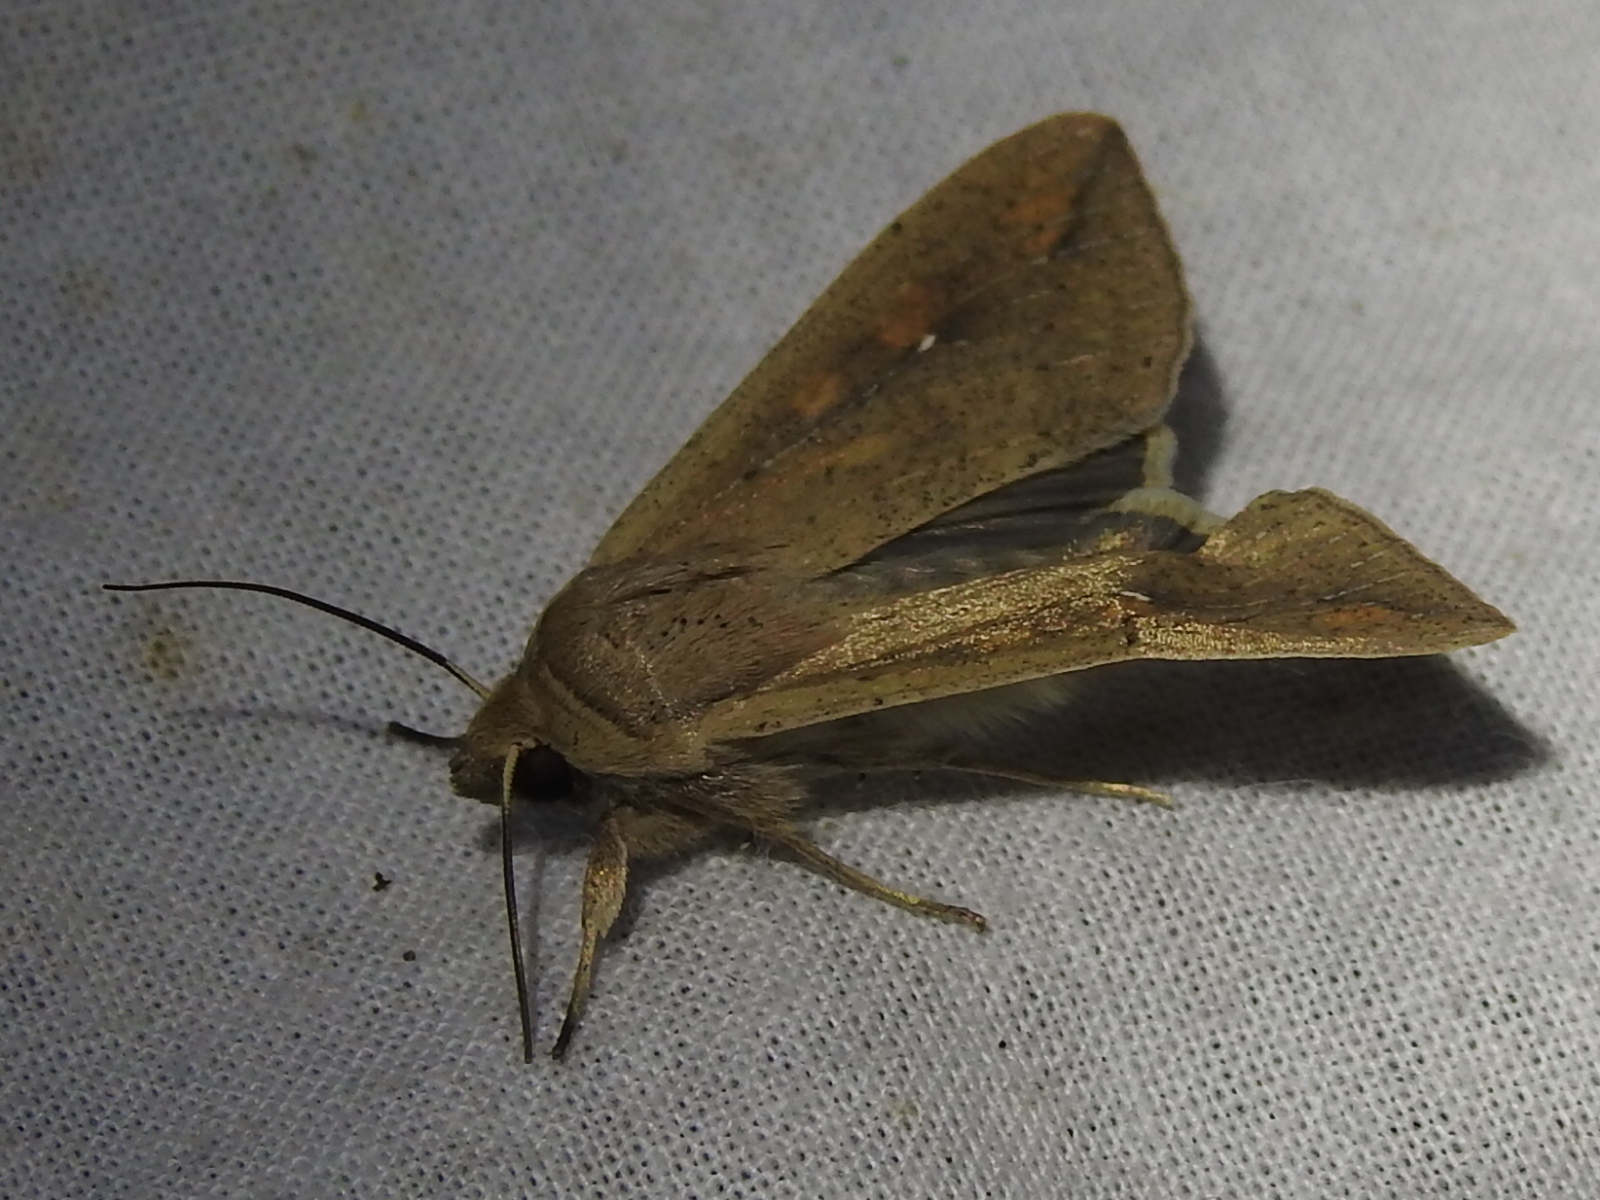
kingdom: Animalia
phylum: Arthropoda
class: Insecta
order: Lepidoptera
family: Noctuidae
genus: Mythimna
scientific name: Mythimna unipuncta
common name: White-speck
